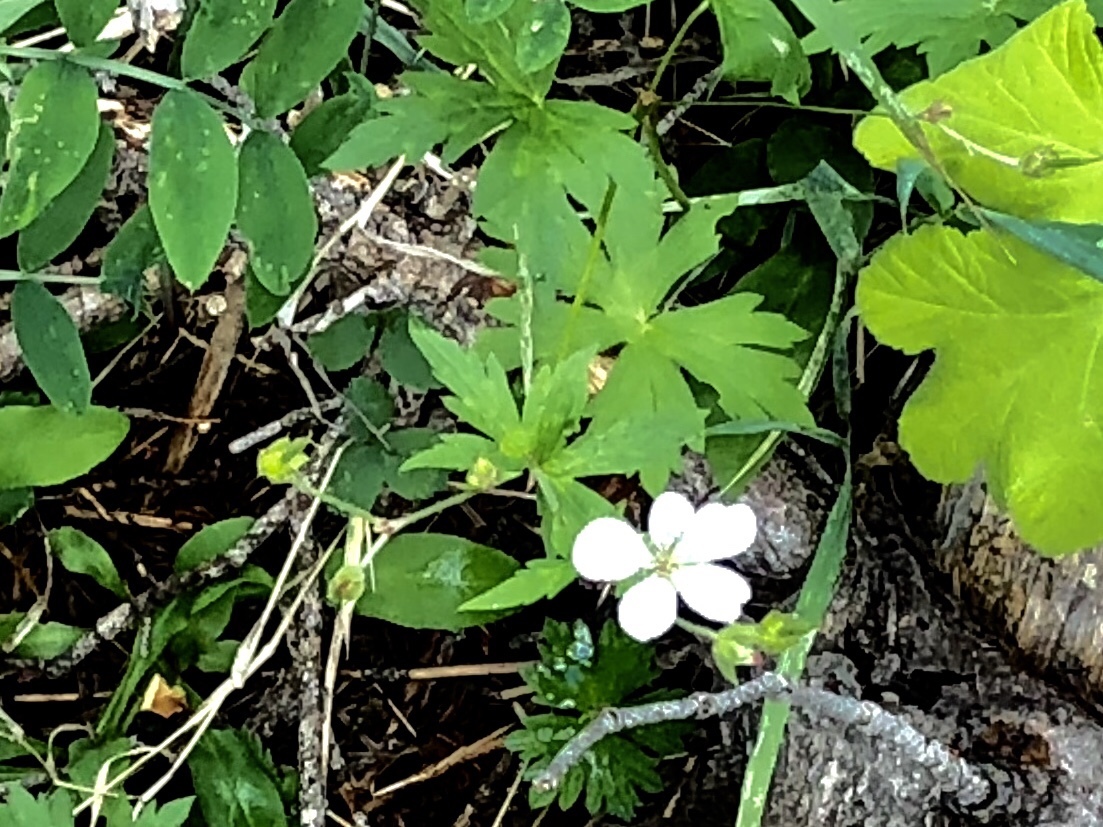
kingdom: Plantae
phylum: Tracheophyta
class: Magnoliopsida
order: Ranunculales
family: Ranunculaceae
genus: Anemonastrum
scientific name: Anemonastrum canadense
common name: Canada anemone
